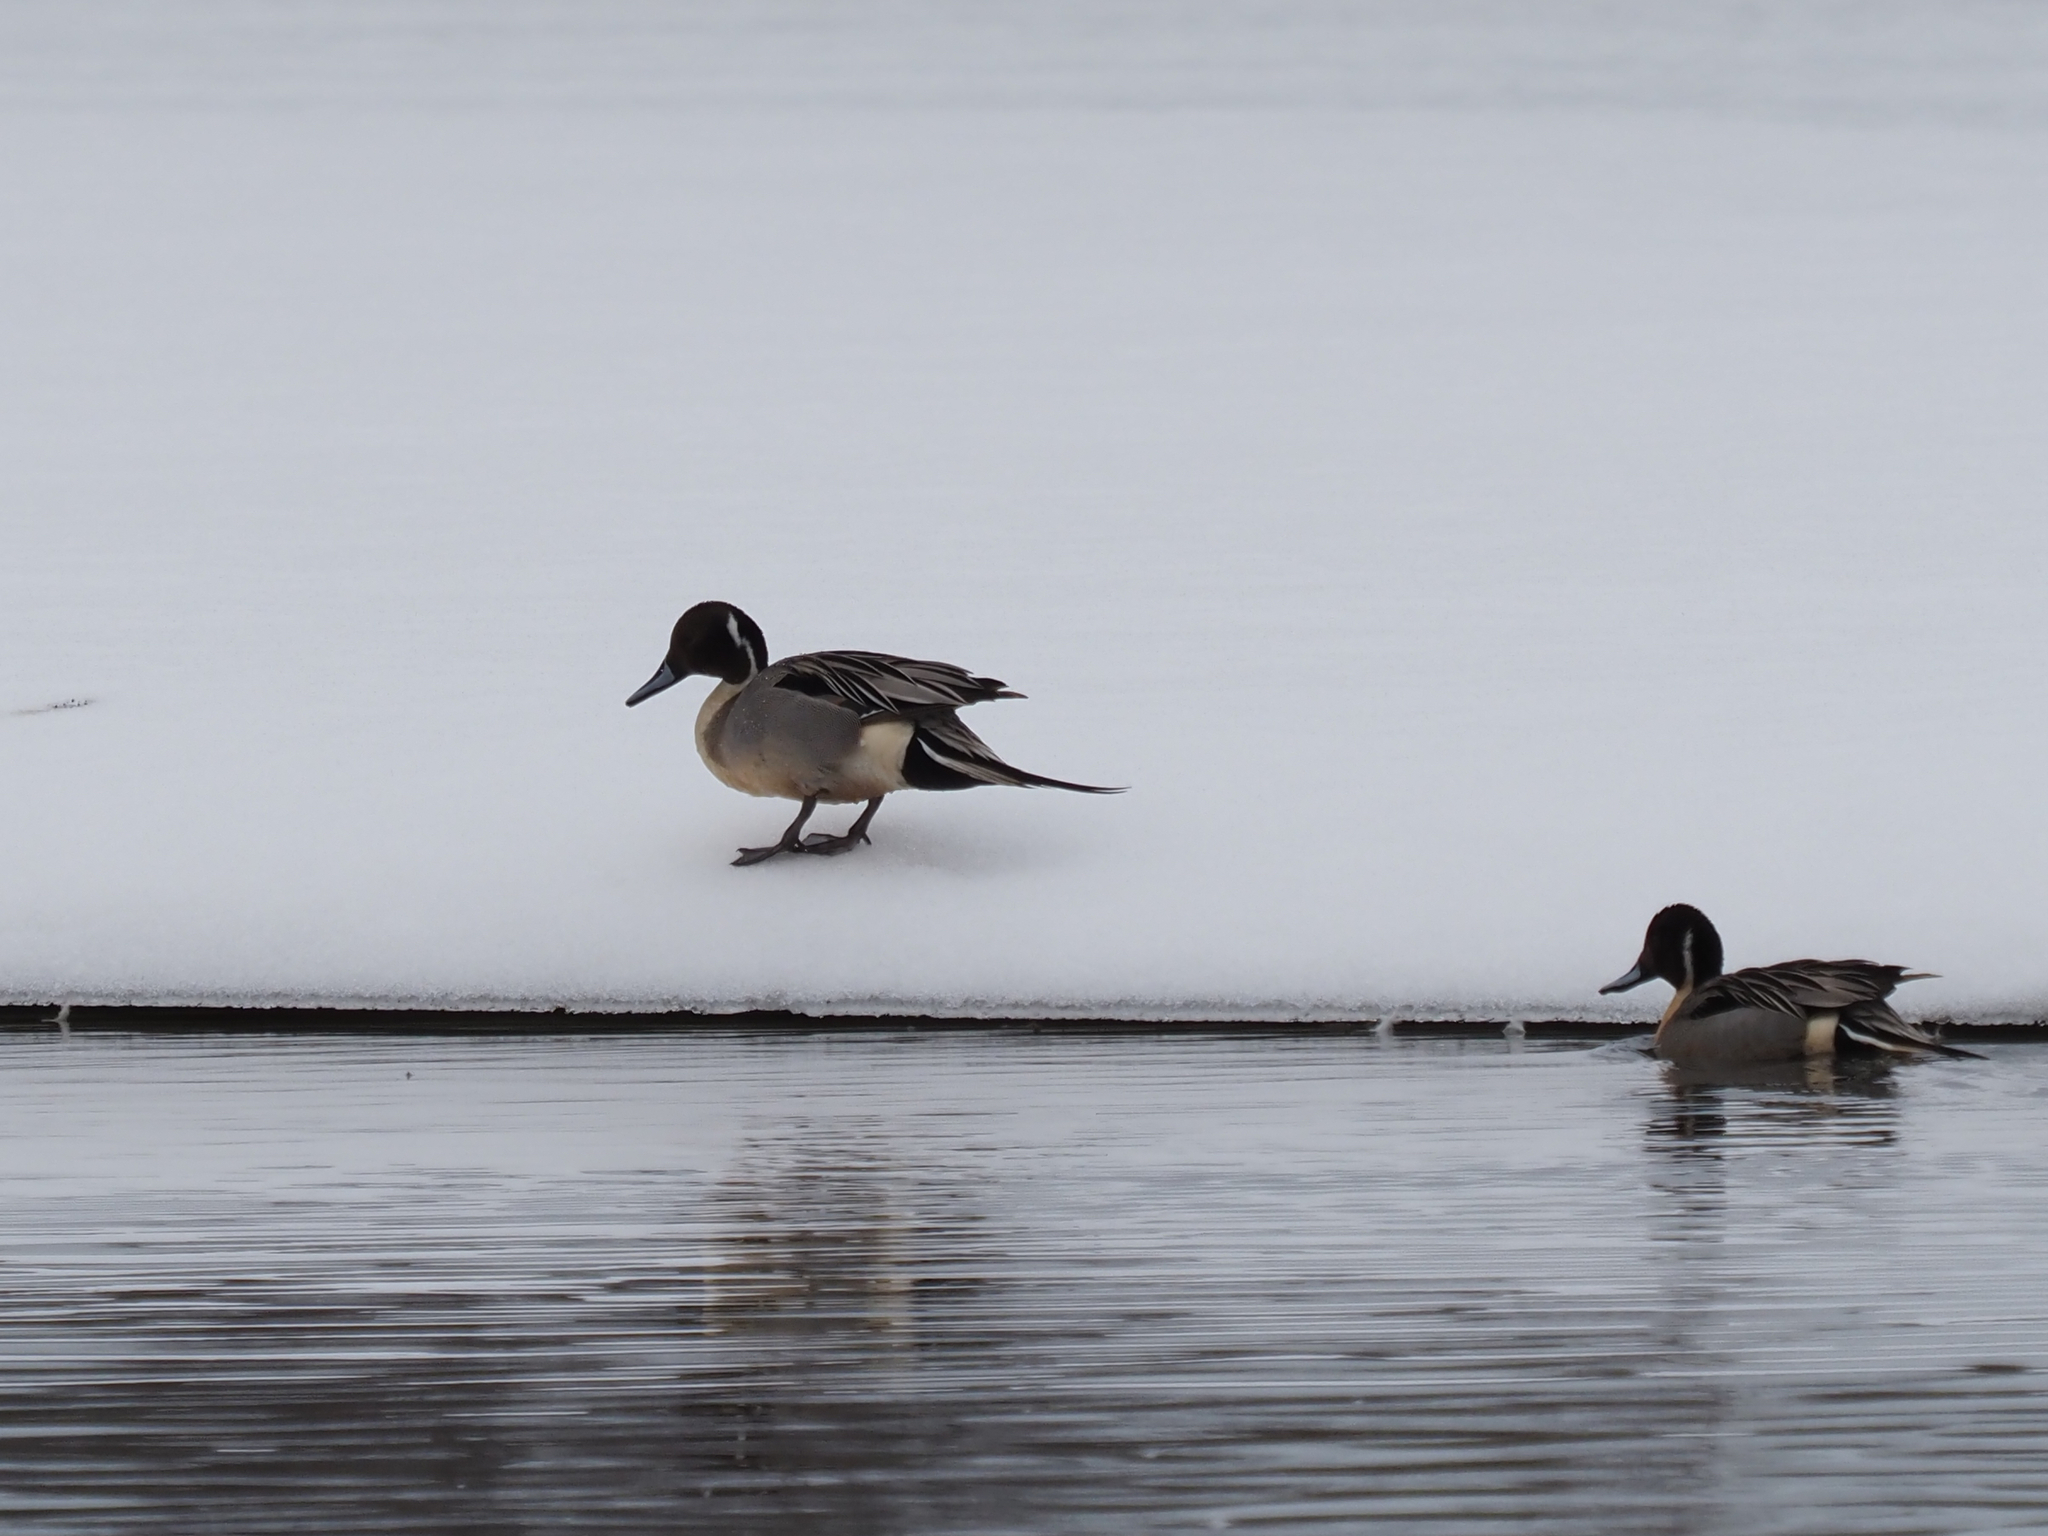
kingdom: Animalia
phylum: Chordata
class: Aves
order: Anseriformes
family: Anatidae
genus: Anas
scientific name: Anas acuta
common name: Northern pintail
